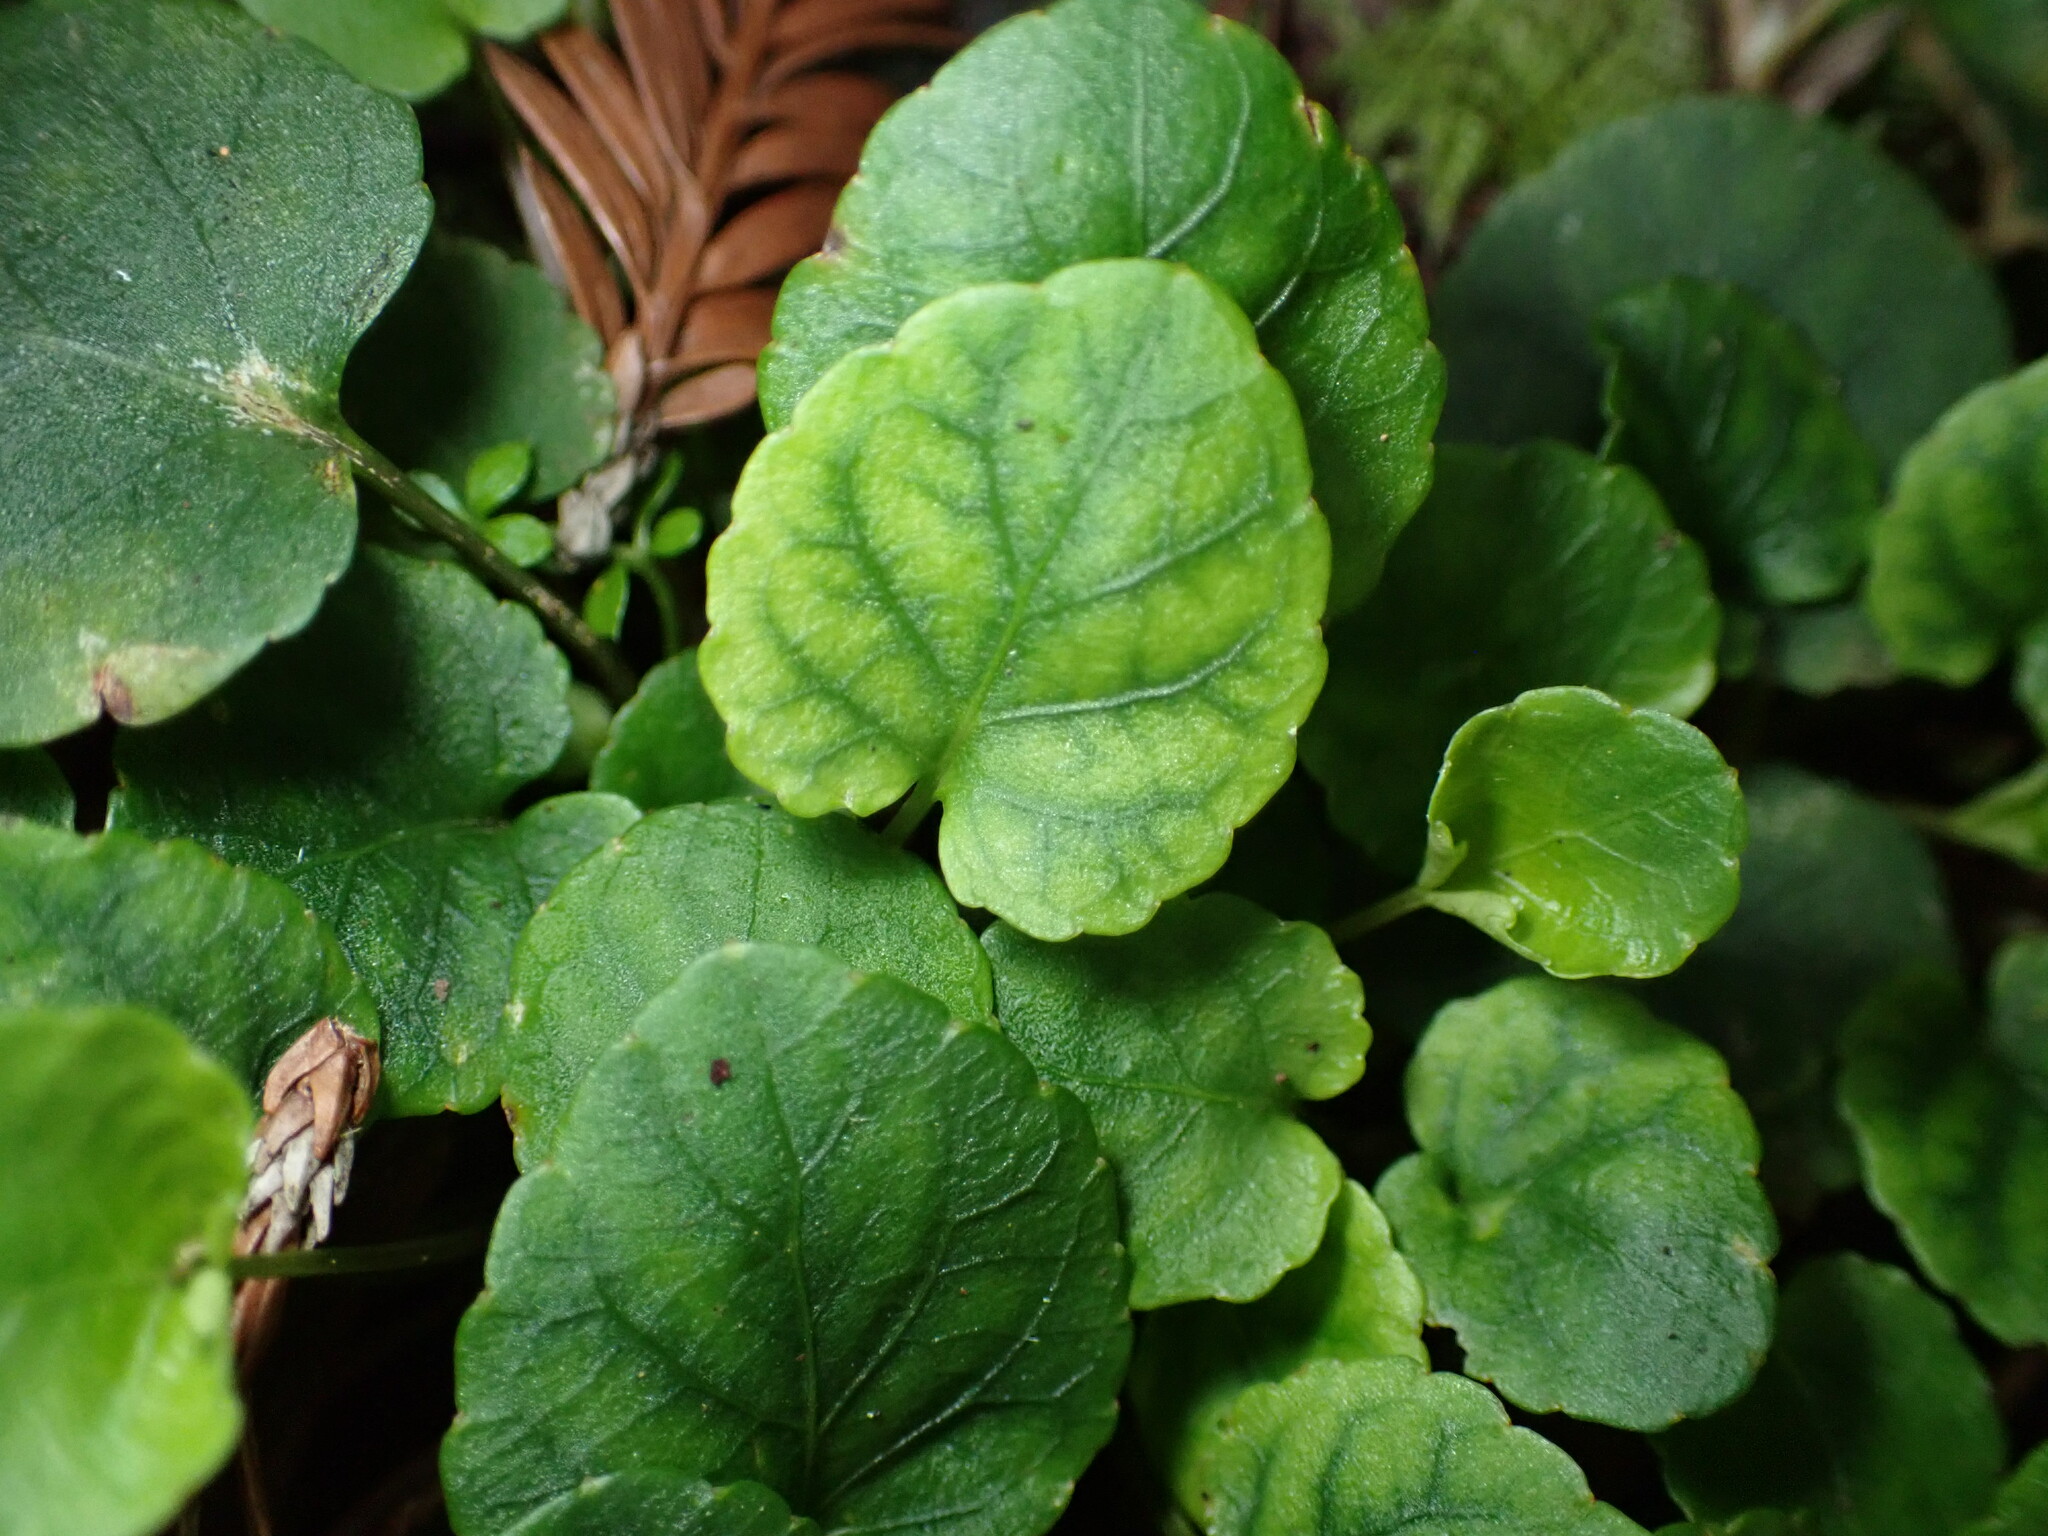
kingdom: Plantae
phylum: Tracheophyta
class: Magnoliopsida
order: Malpighiales
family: Violaceae
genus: Viola
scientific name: Viola sempervirens
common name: Evergreen violet
